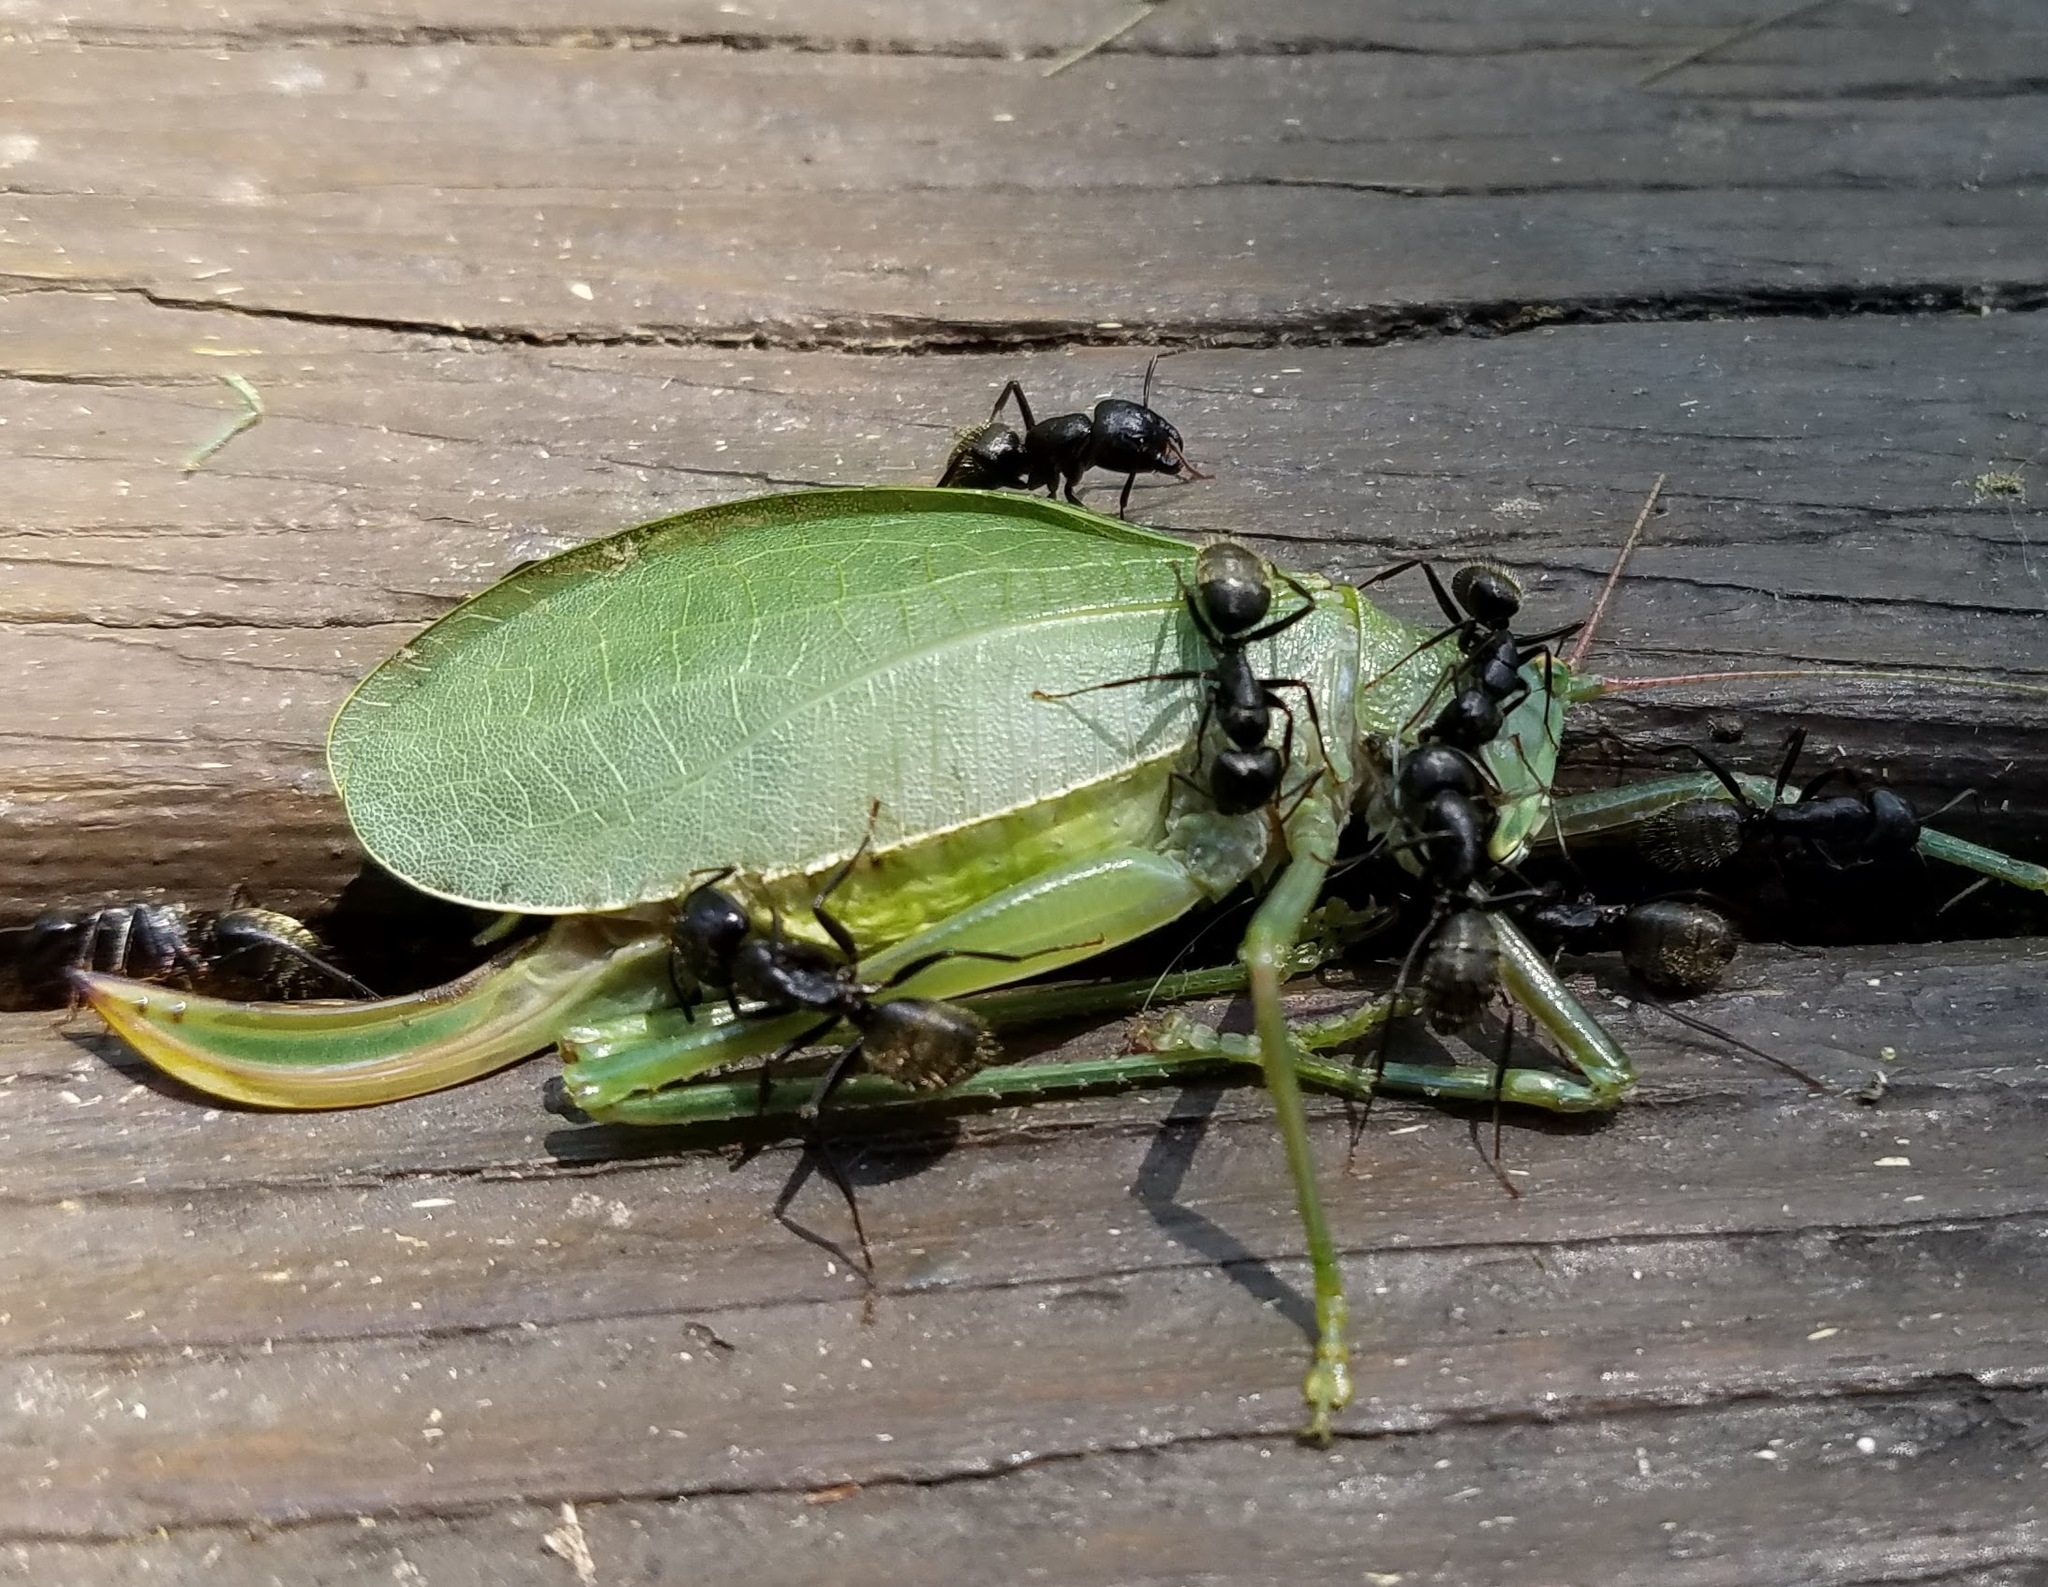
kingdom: Animalia
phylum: Arthropoda
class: Insecta
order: Hymenoptera
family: Formicidae
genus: Camponotus
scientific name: Camponotus pennsylvanicus
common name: Black carpenter ant
